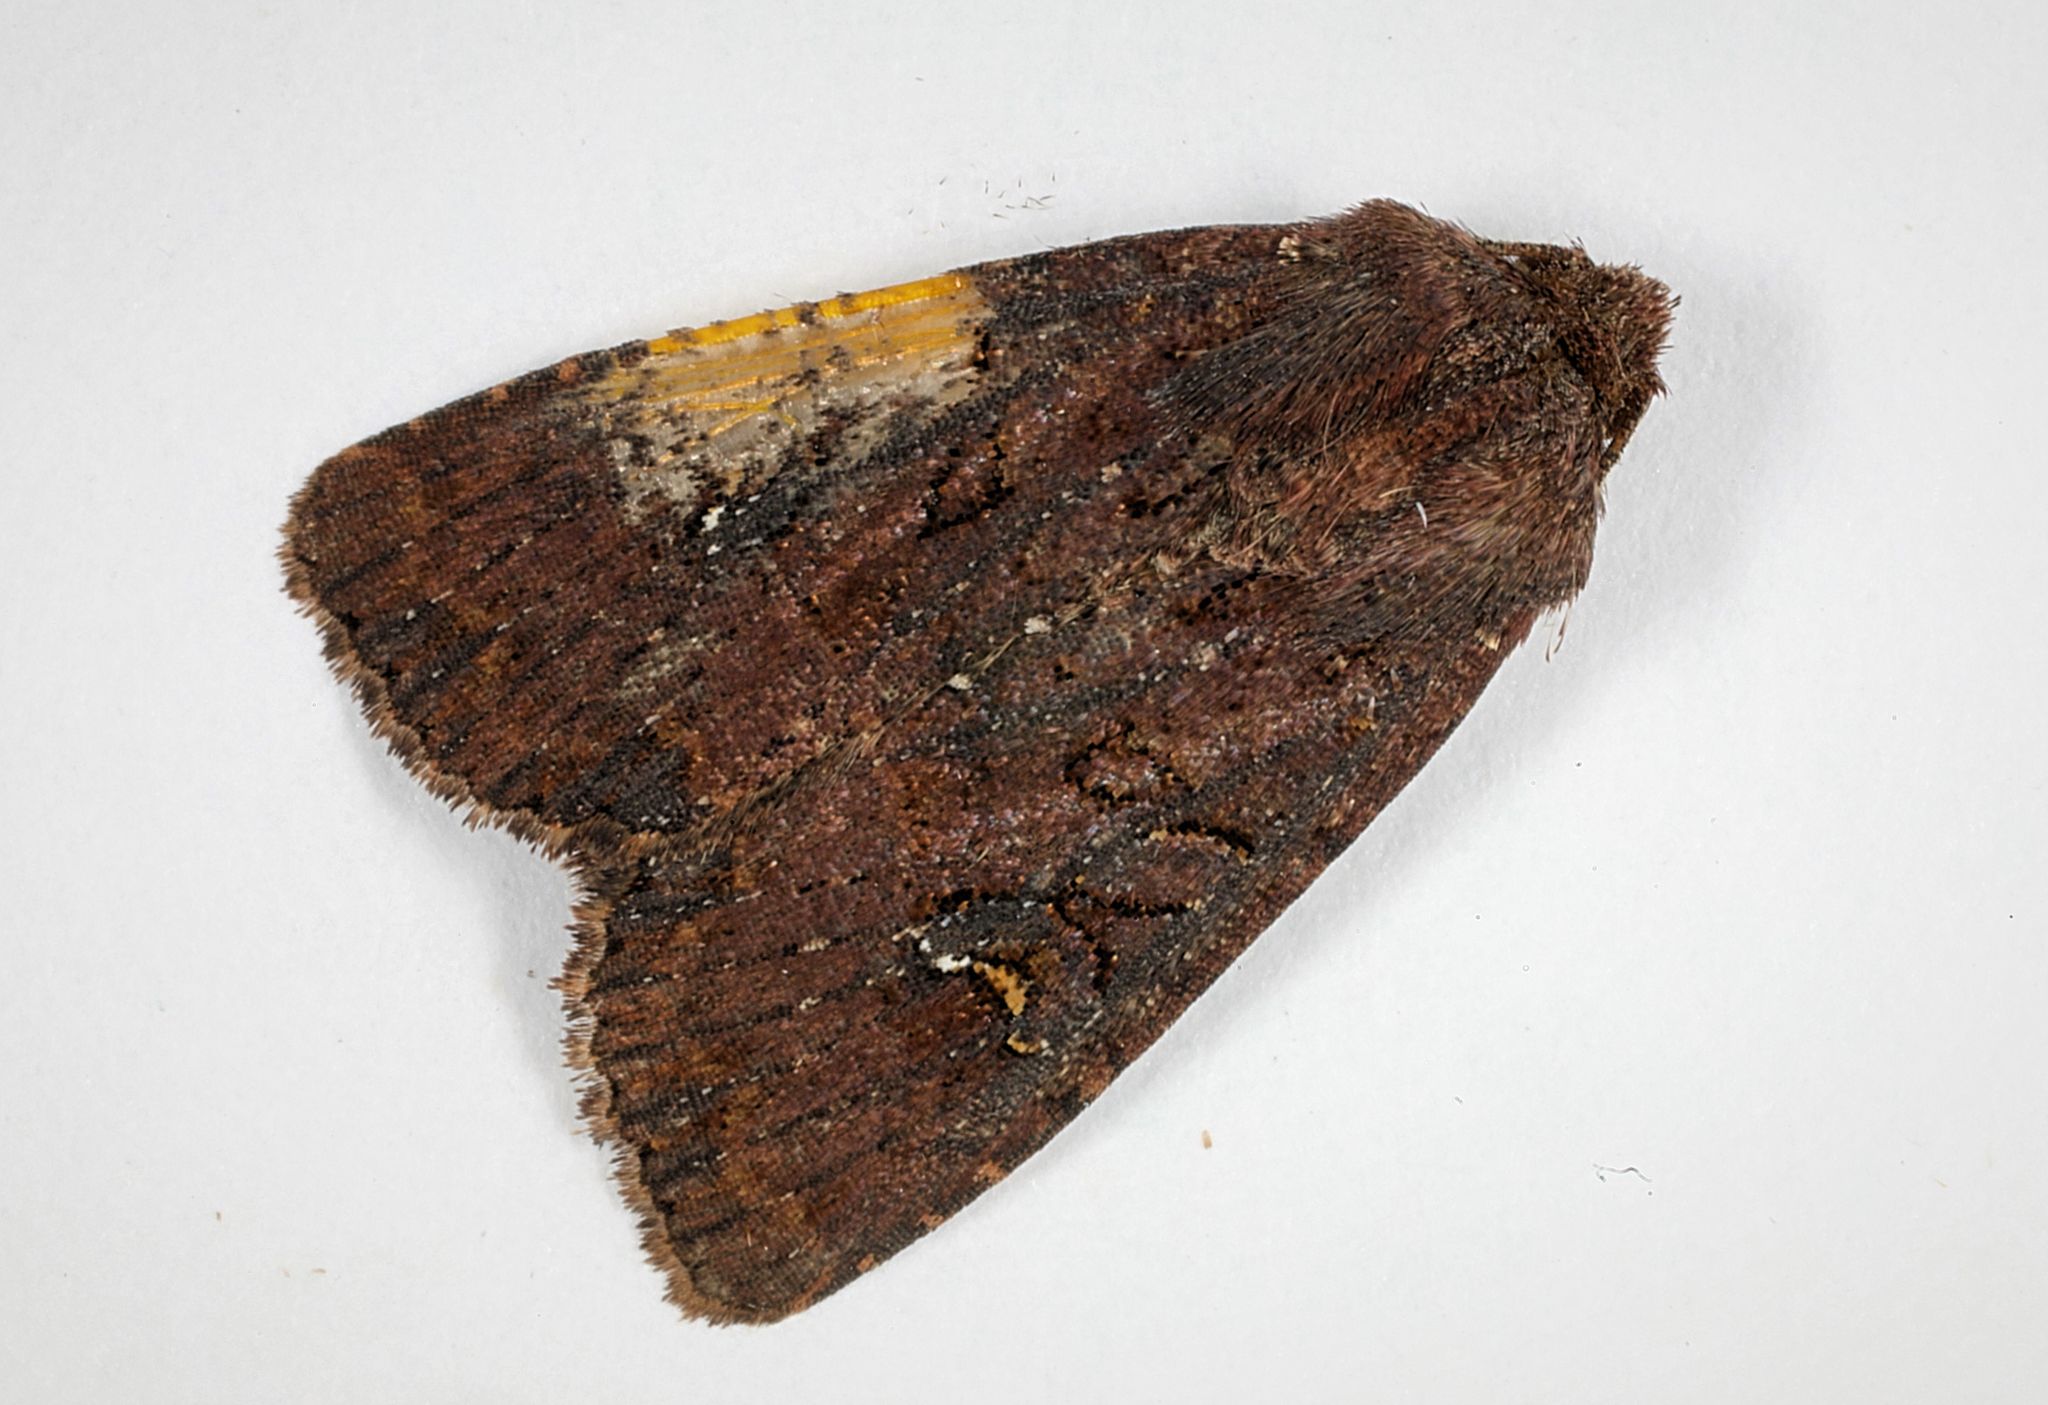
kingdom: Animalia
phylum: Arthropoda
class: Insecta
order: Lepidoptera
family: Noctuidae
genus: Mesapamea
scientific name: Mesapamea
